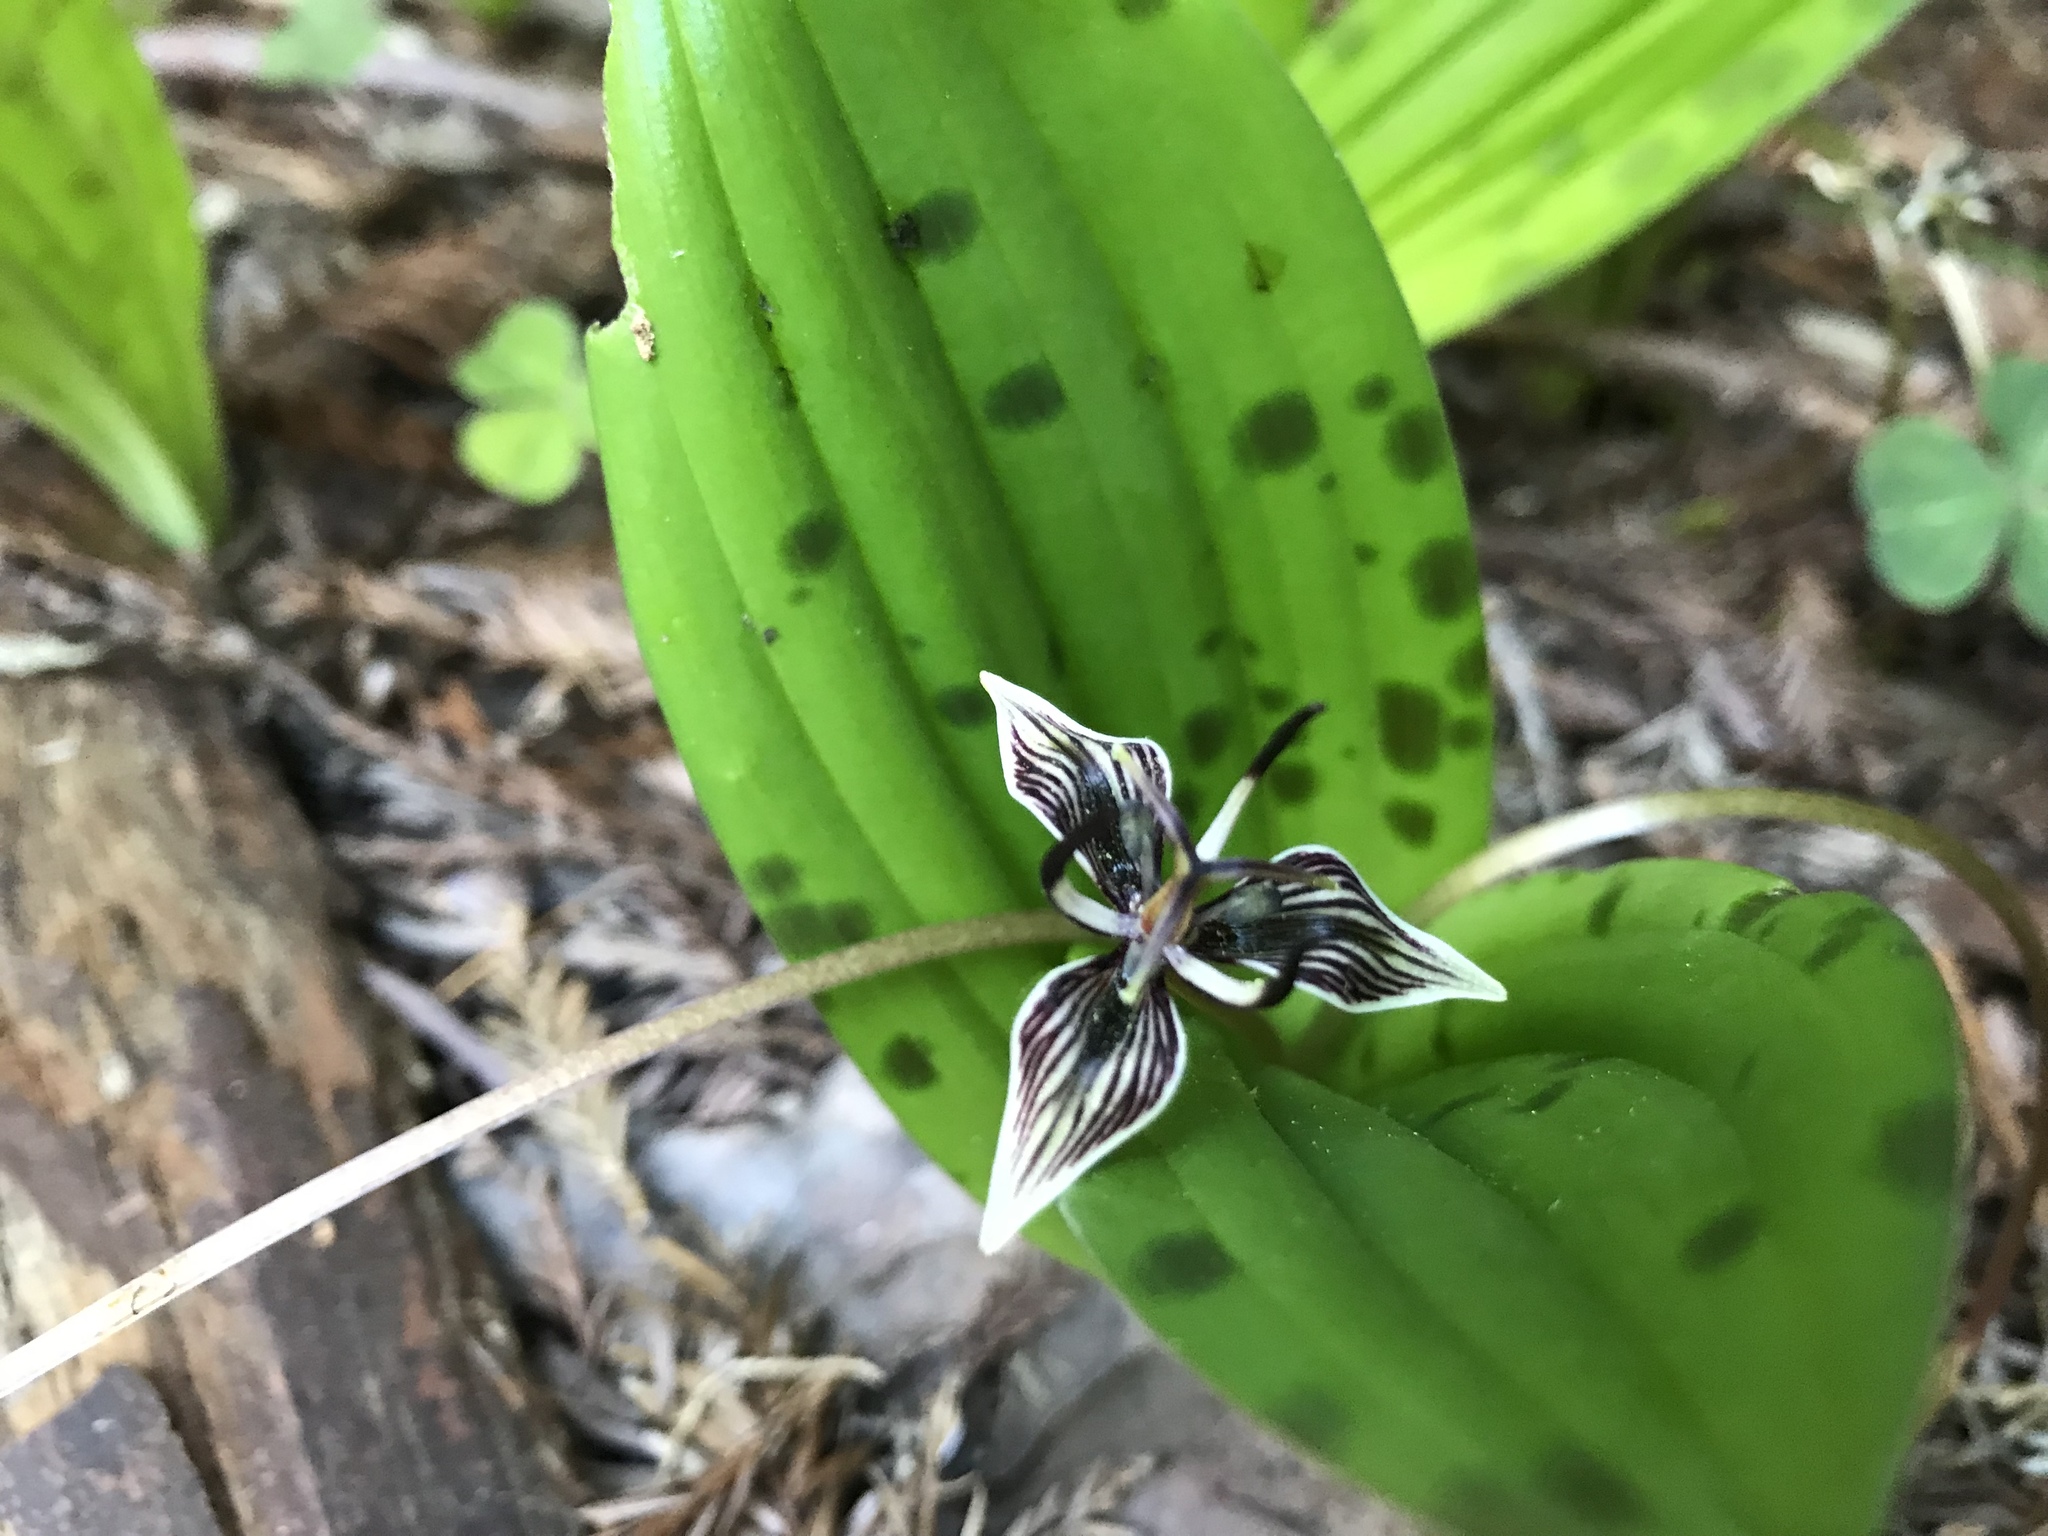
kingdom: Plantae
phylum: Tracheophyta
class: Liliopsida
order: Liliales
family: Liliaceae
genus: Scoliopus
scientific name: Scoliopus bigelovii
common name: Foetid adder's-tongue
